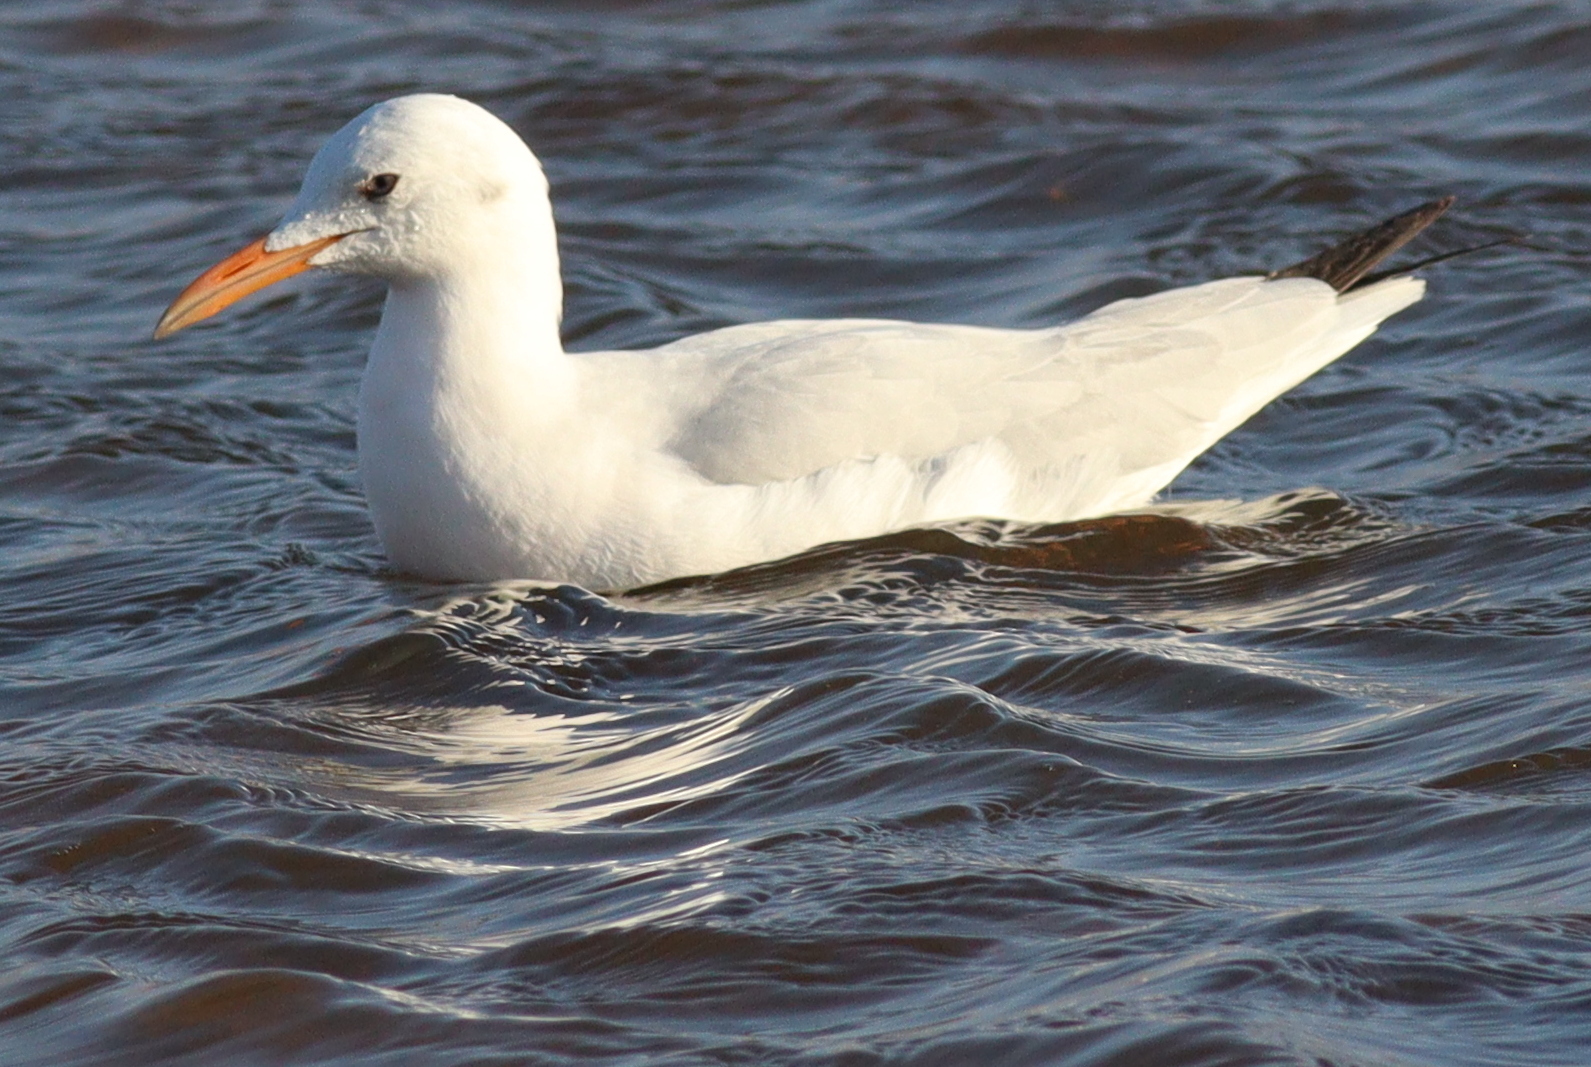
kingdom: Animalia
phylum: Chordata
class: Aves
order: Charadriiformes
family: Laridae
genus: Chroicocephalus
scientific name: Chroicocephalus genei
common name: Slender-billed gull
